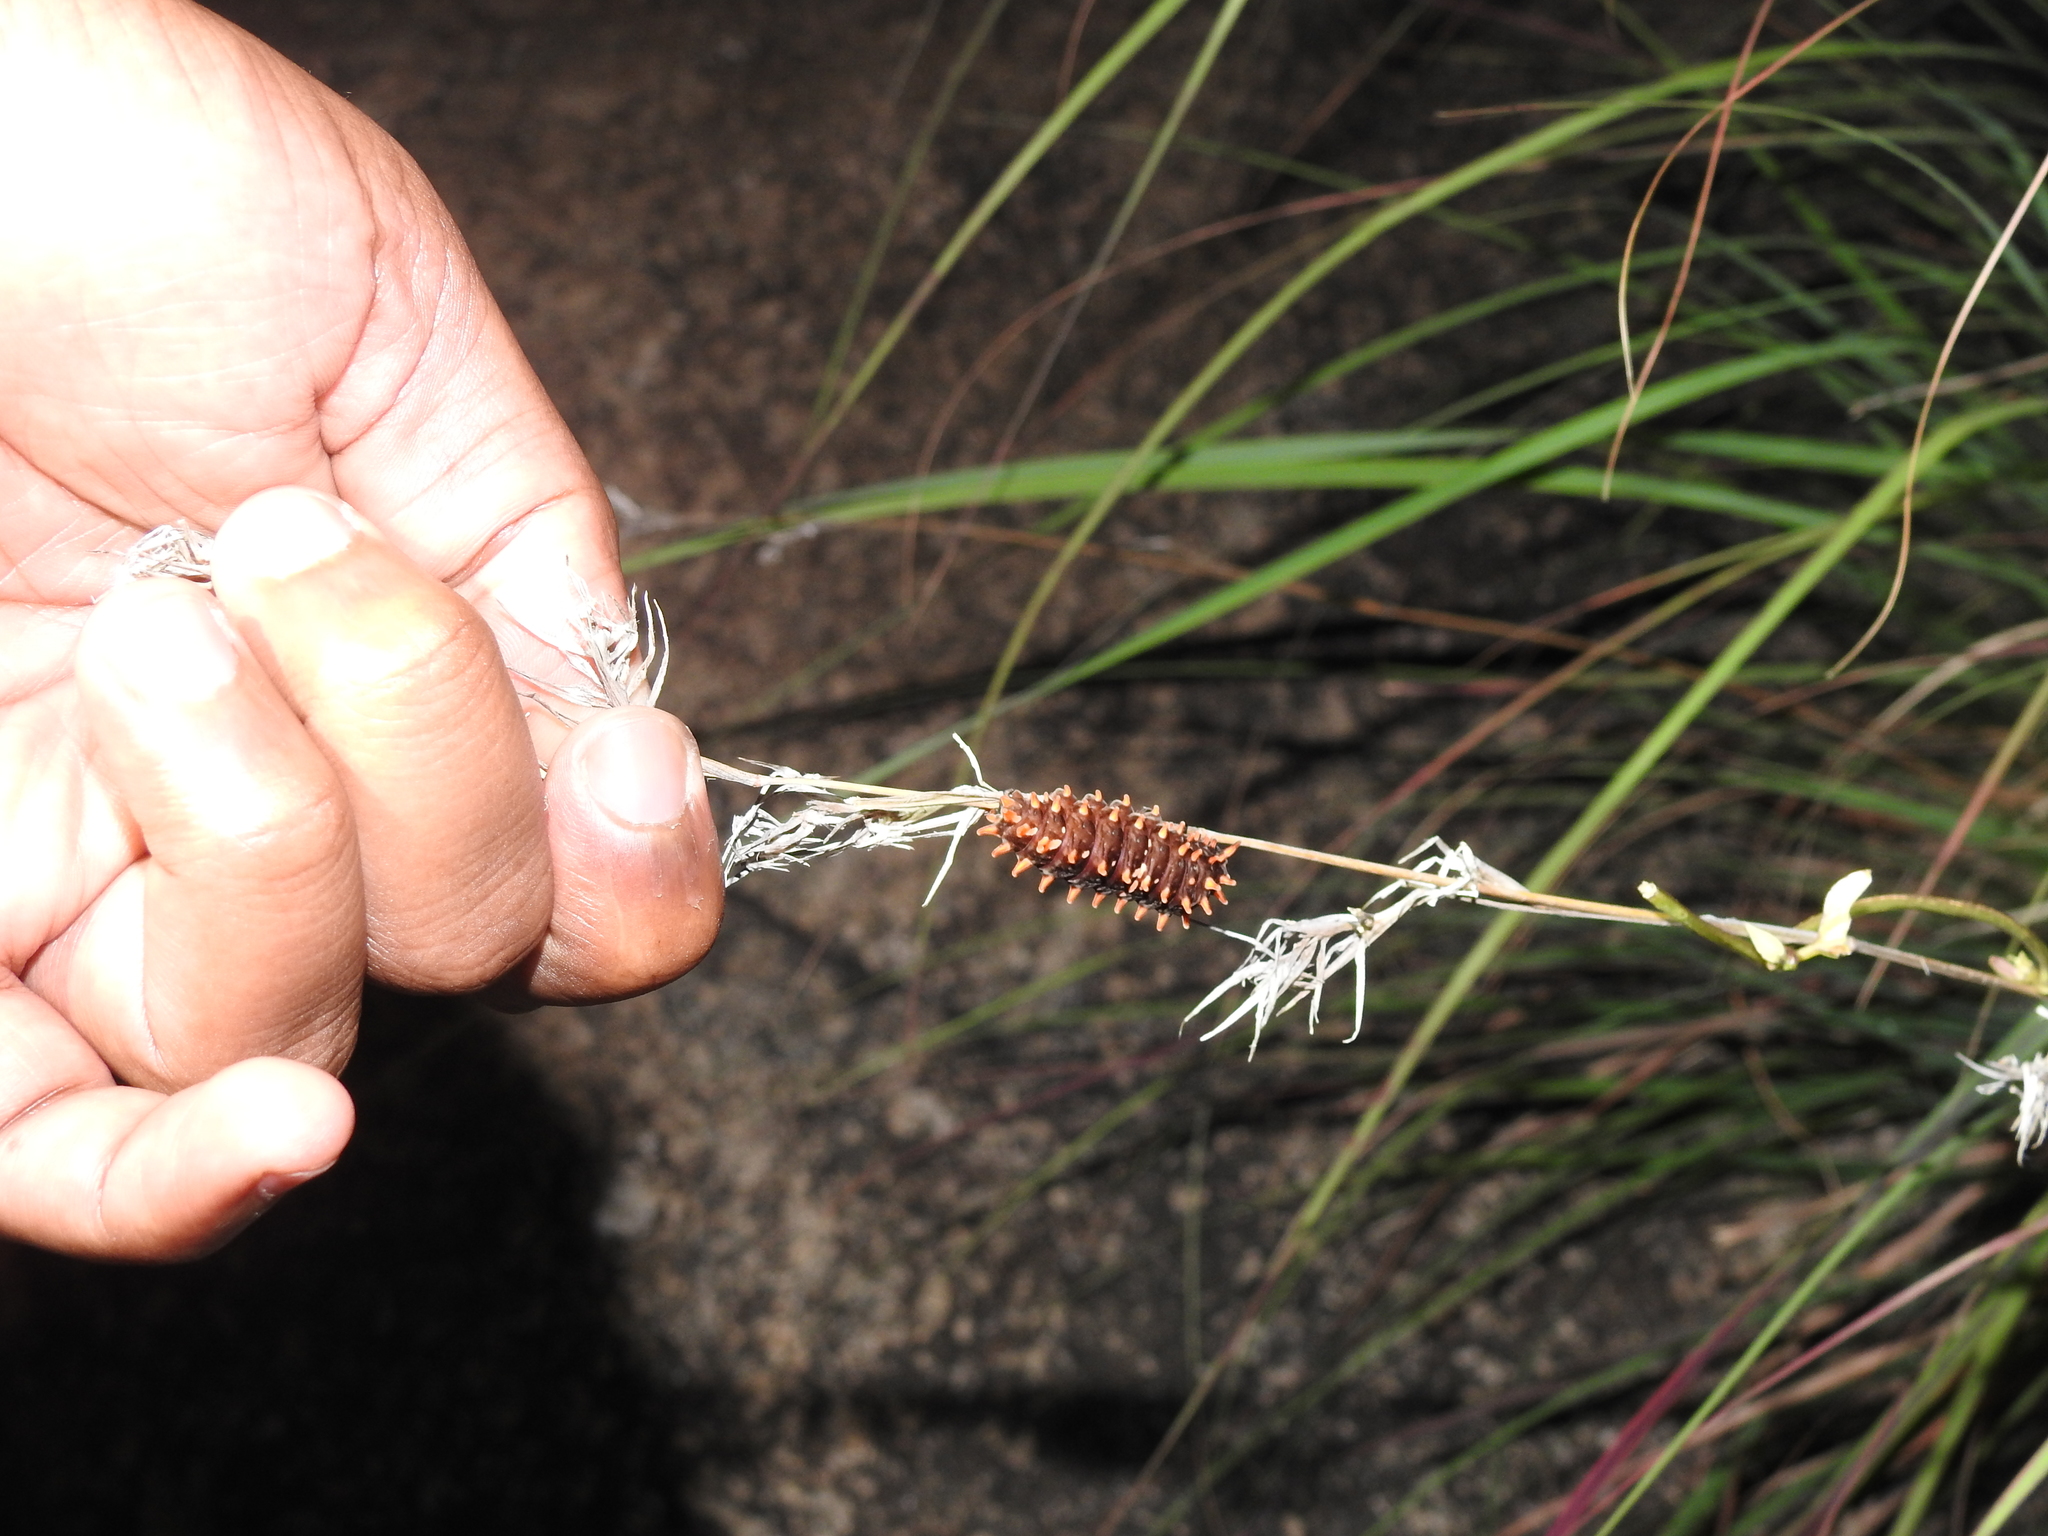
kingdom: Animalia
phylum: Arthropoda
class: Insecta
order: Lepidoptera
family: Papilionidae
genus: Pachliopta
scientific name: Pachliopta hector
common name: Crimson rose
